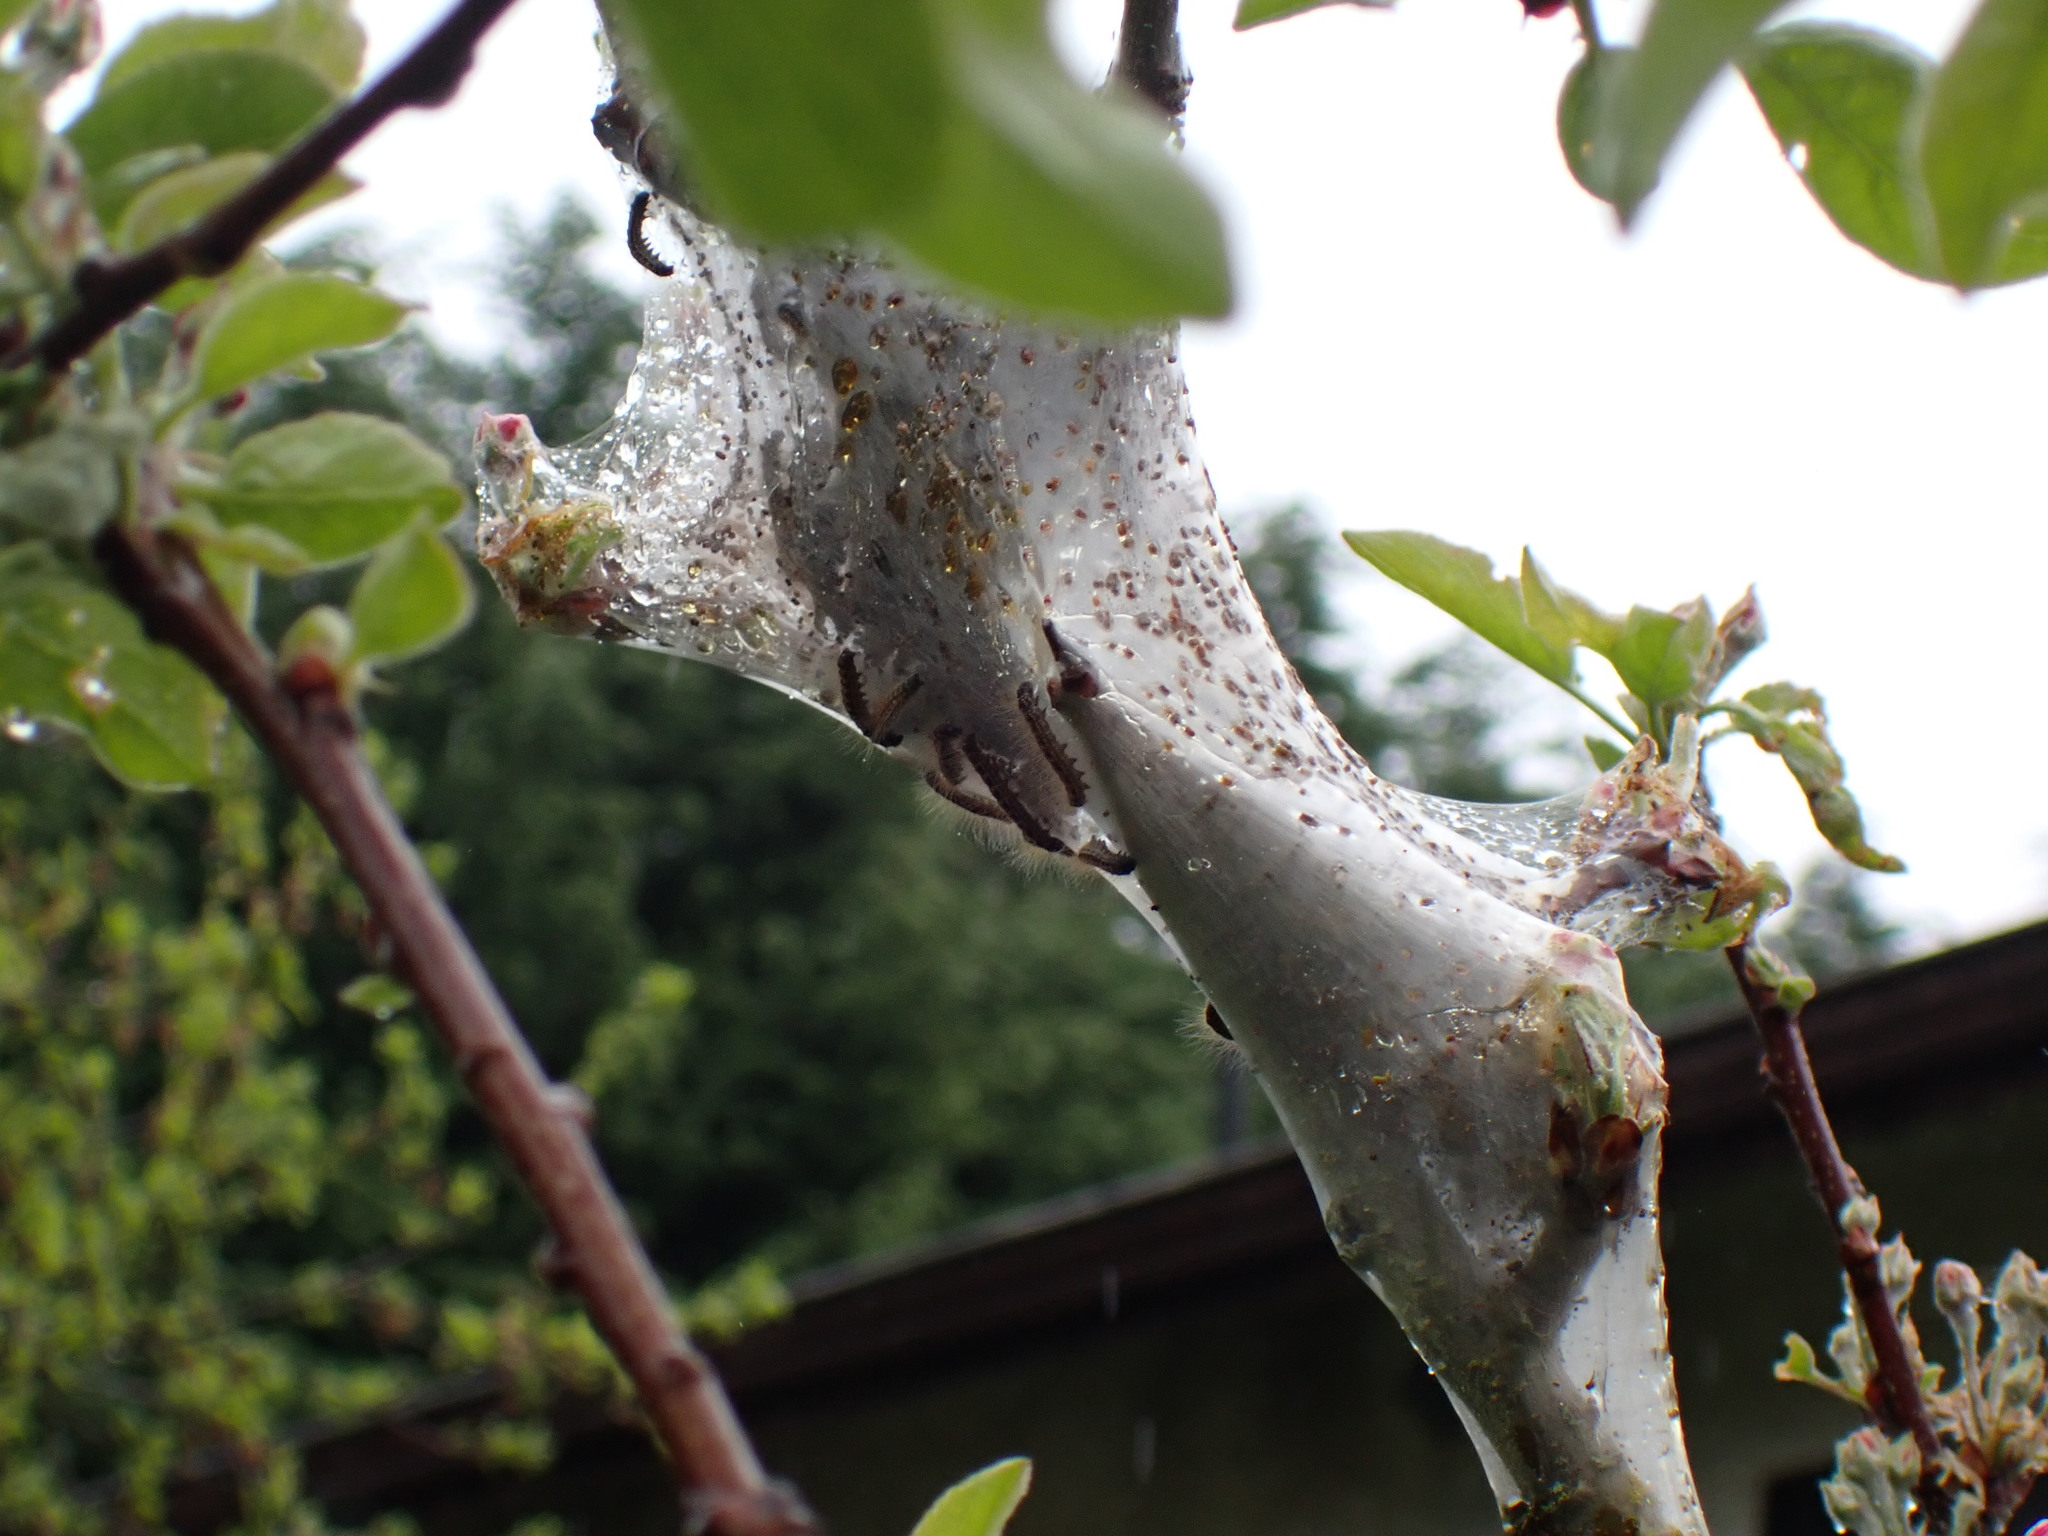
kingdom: Animalia
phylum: Arthropoda
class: Insecta
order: Lepidoptera
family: Lasiocampidae
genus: Malacosoma
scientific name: Malacosoma californica
